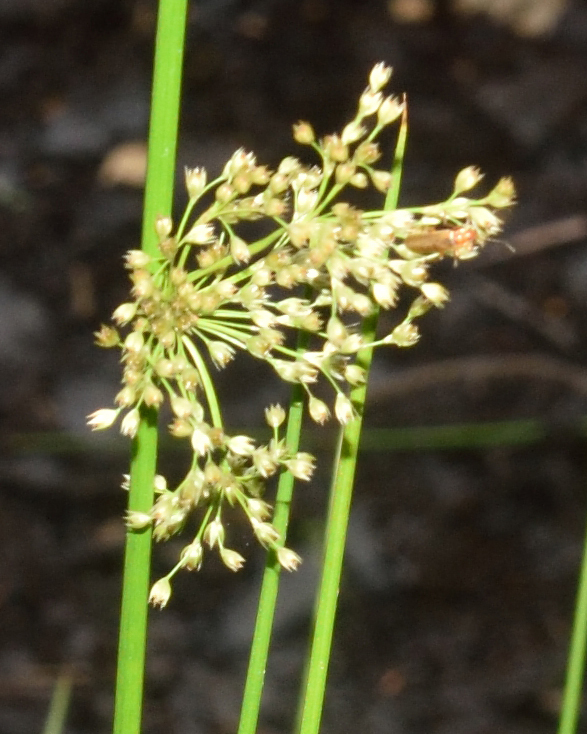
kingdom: Plantae
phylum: Tracheophyta
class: Liliopsida
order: Poales
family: Juncaceae
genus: Juncus
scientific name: Juncus effusus
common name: Soft rush
